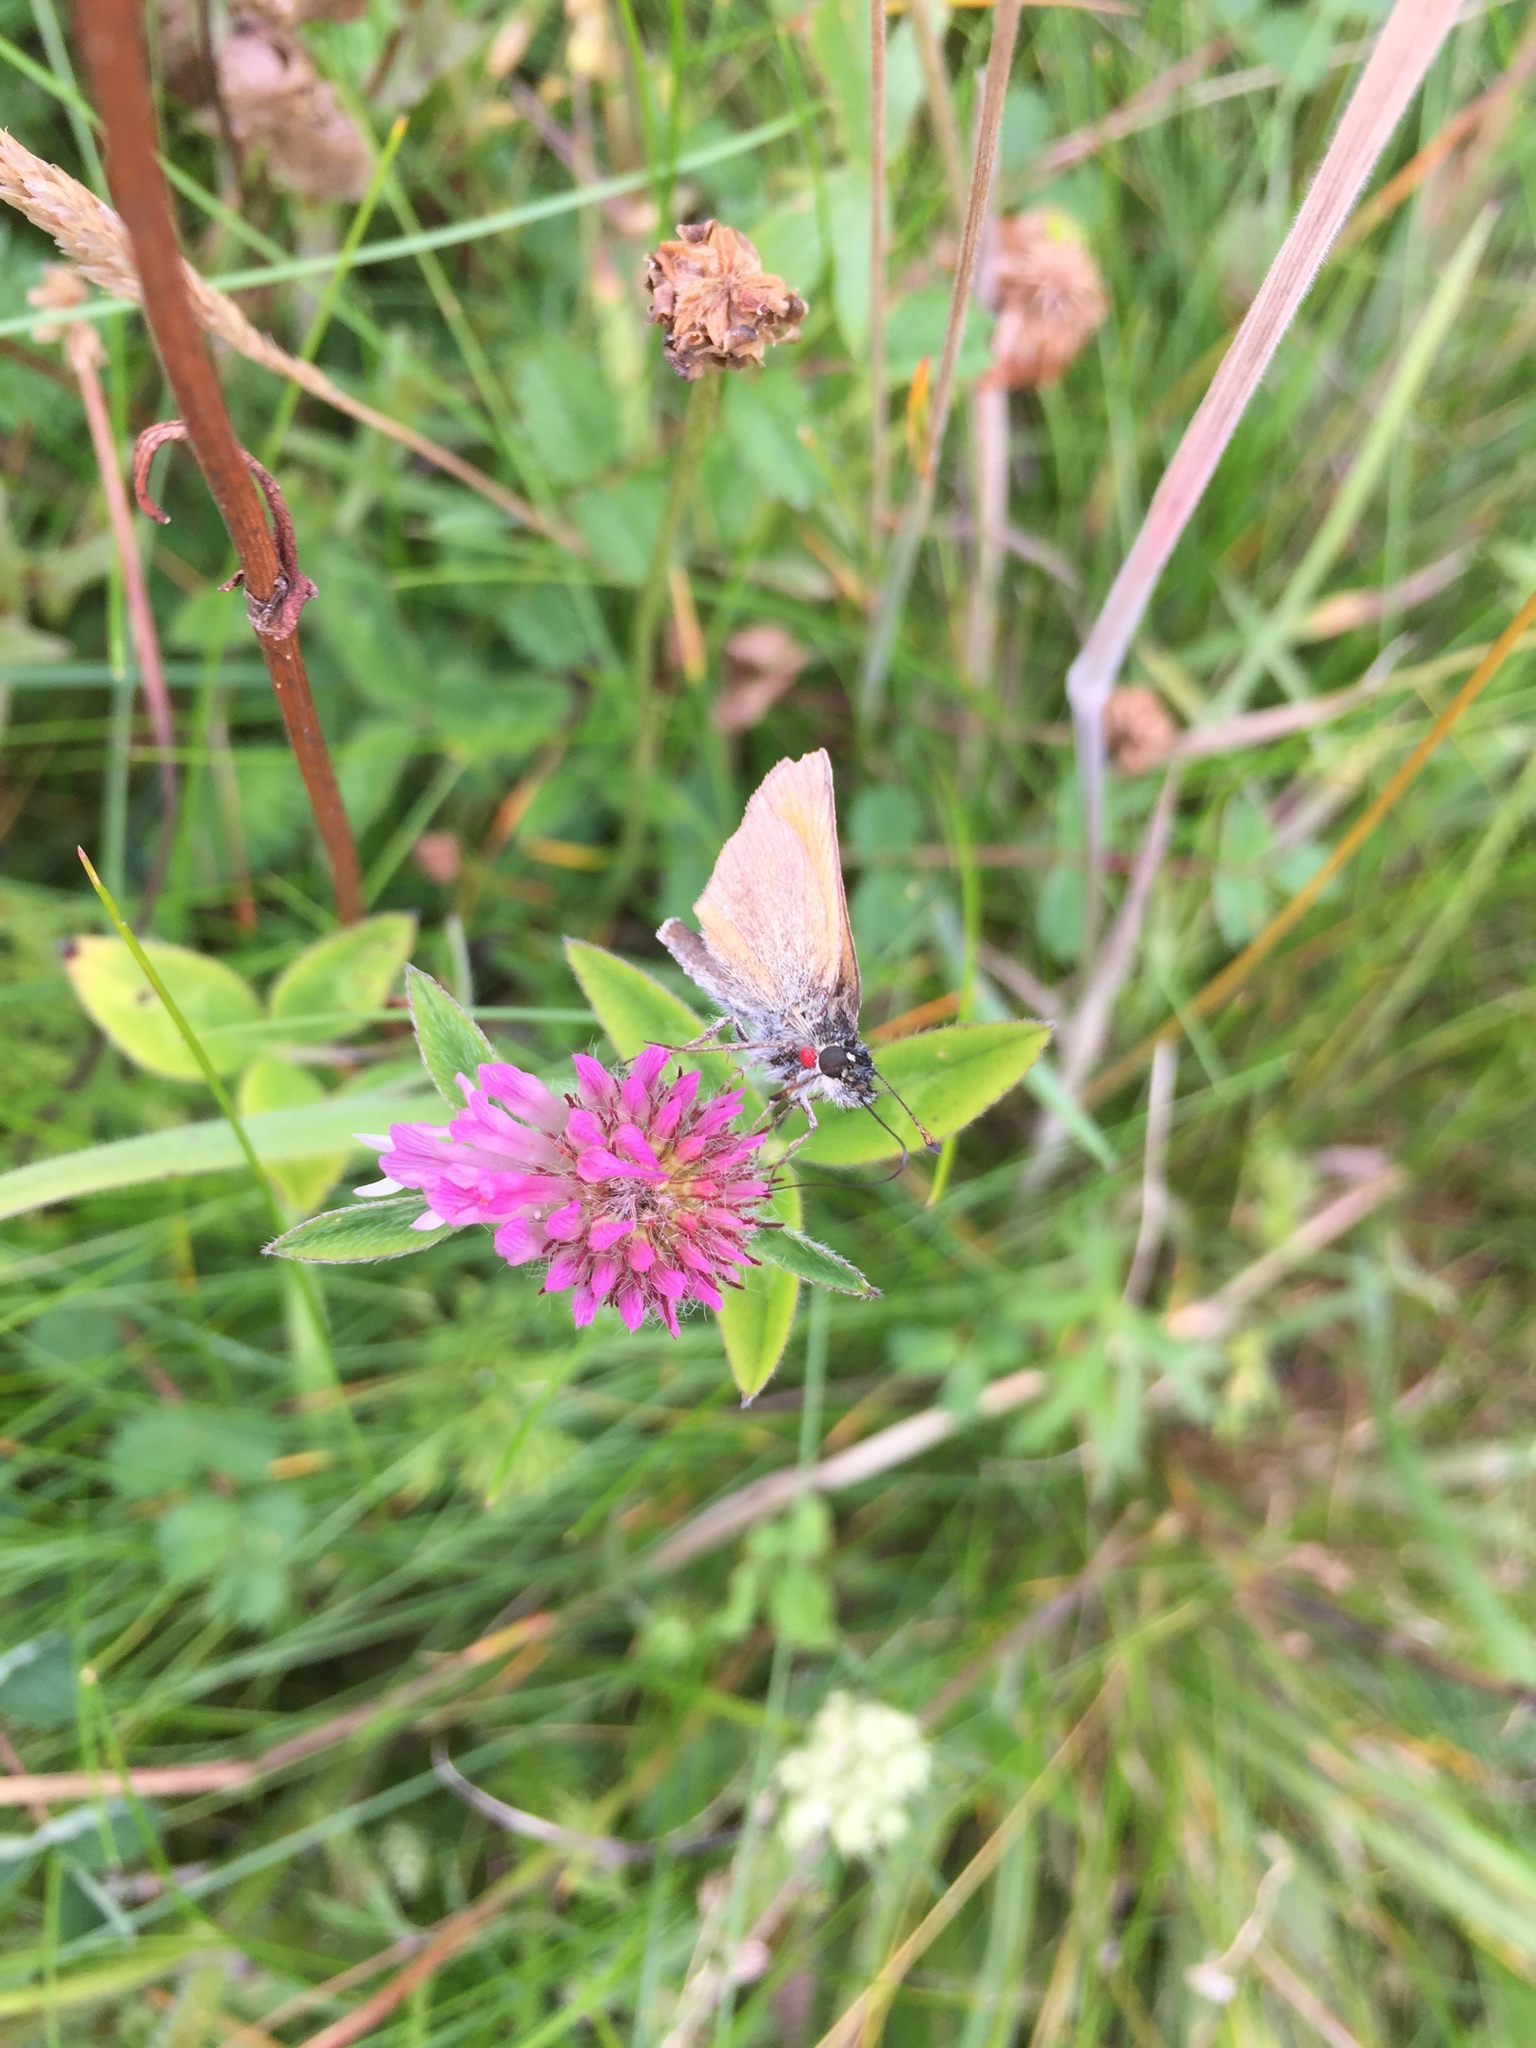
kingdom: Animalia
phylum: Arthropoda
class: Insecta
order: Lepidoptera
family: Hesperiidae
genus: Thymelicus
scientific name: Thymelicus lineola
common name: Essex skipper
